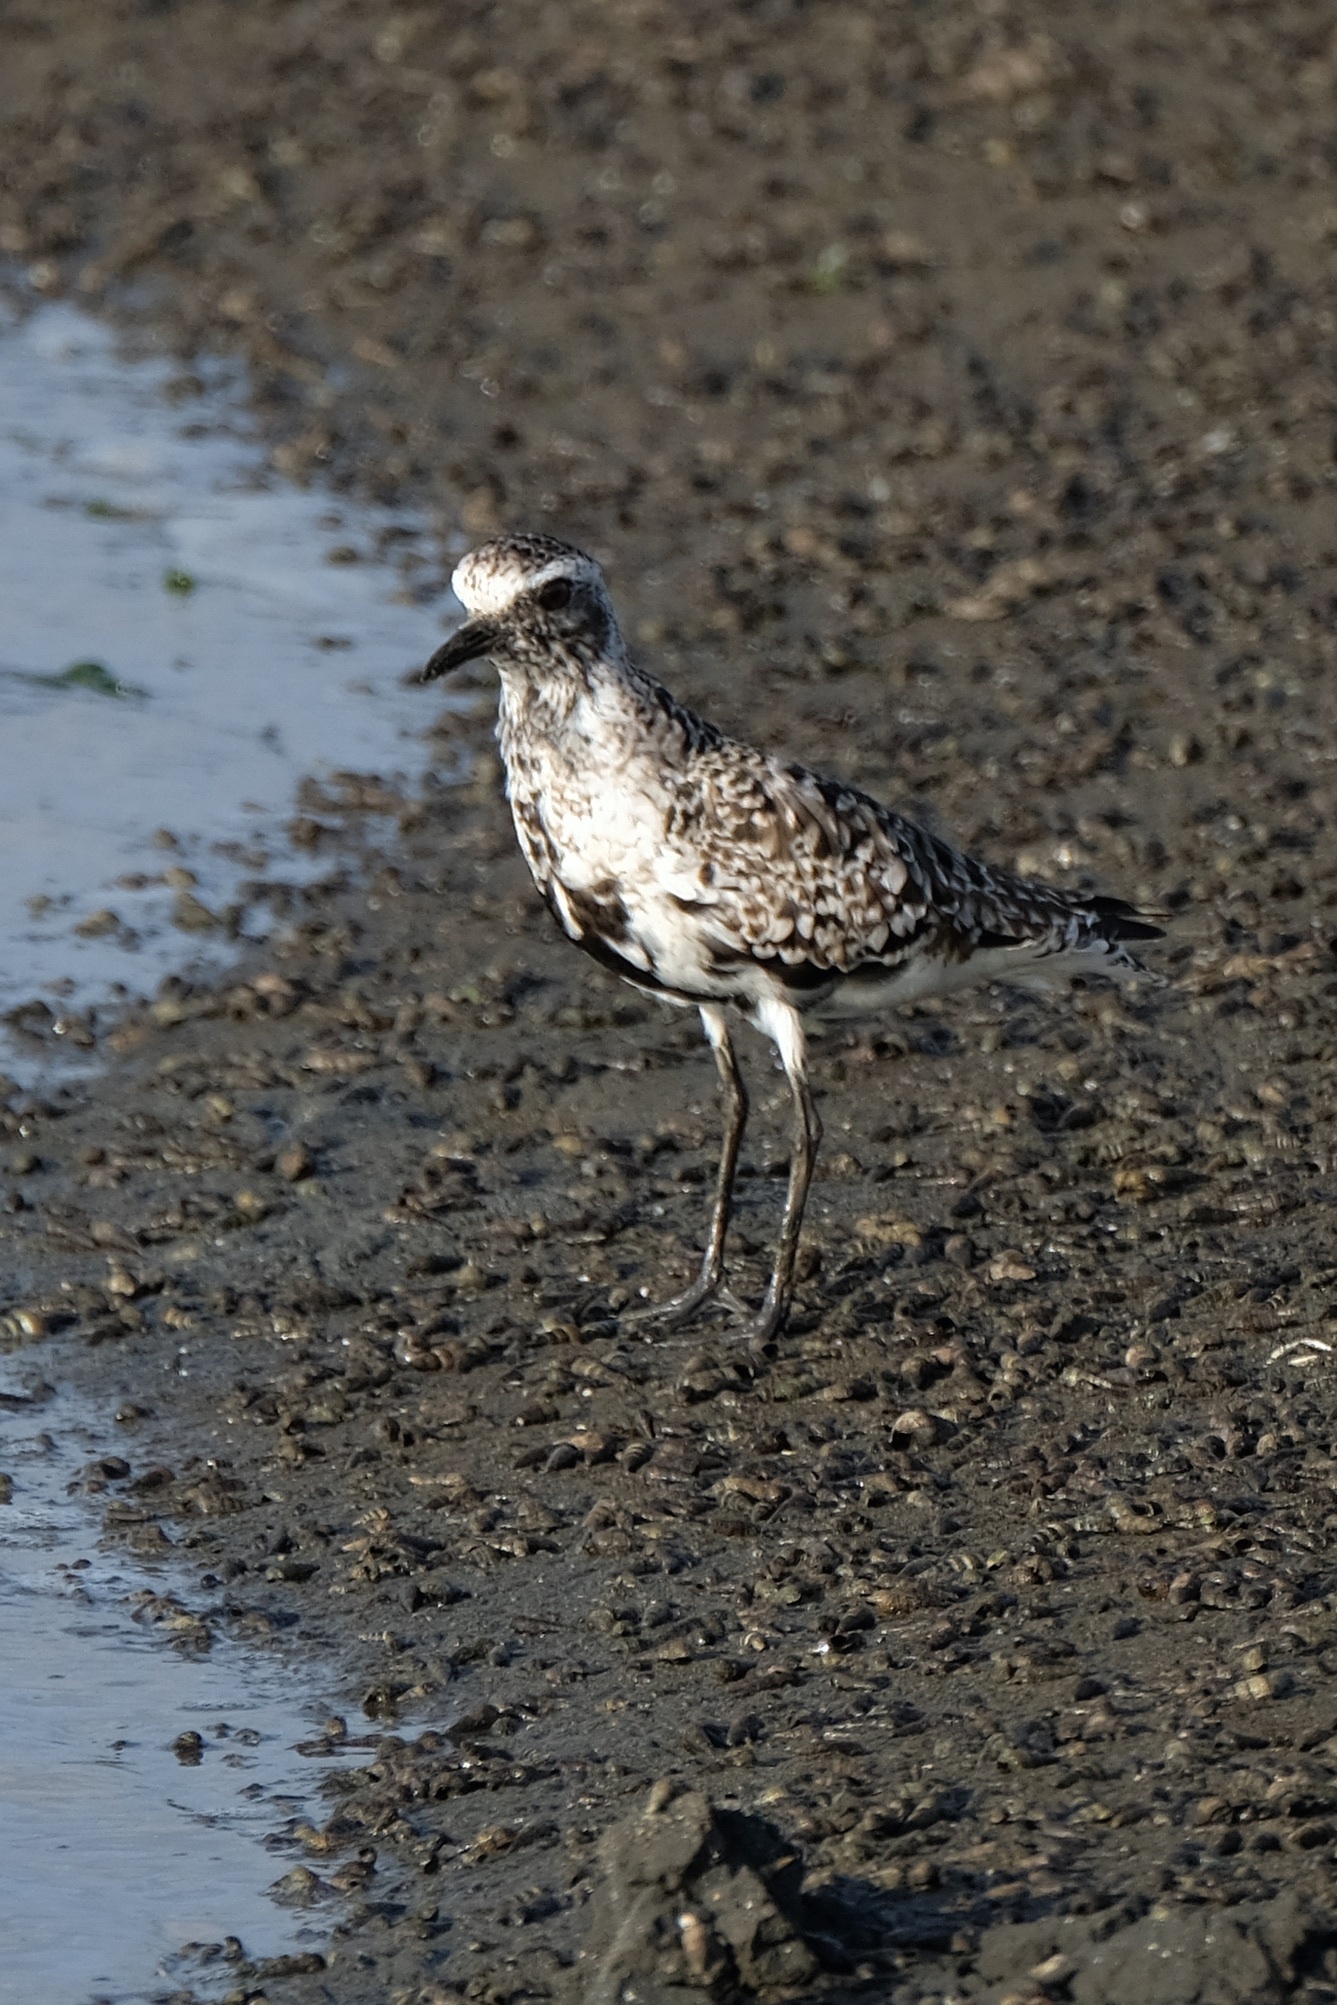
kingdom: Animalia
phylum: Chordata
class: Aves
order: Charadriiformes
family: Charadriidae
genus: Pluvialis
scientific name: Pluvialis squatarola
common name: Grey plover
